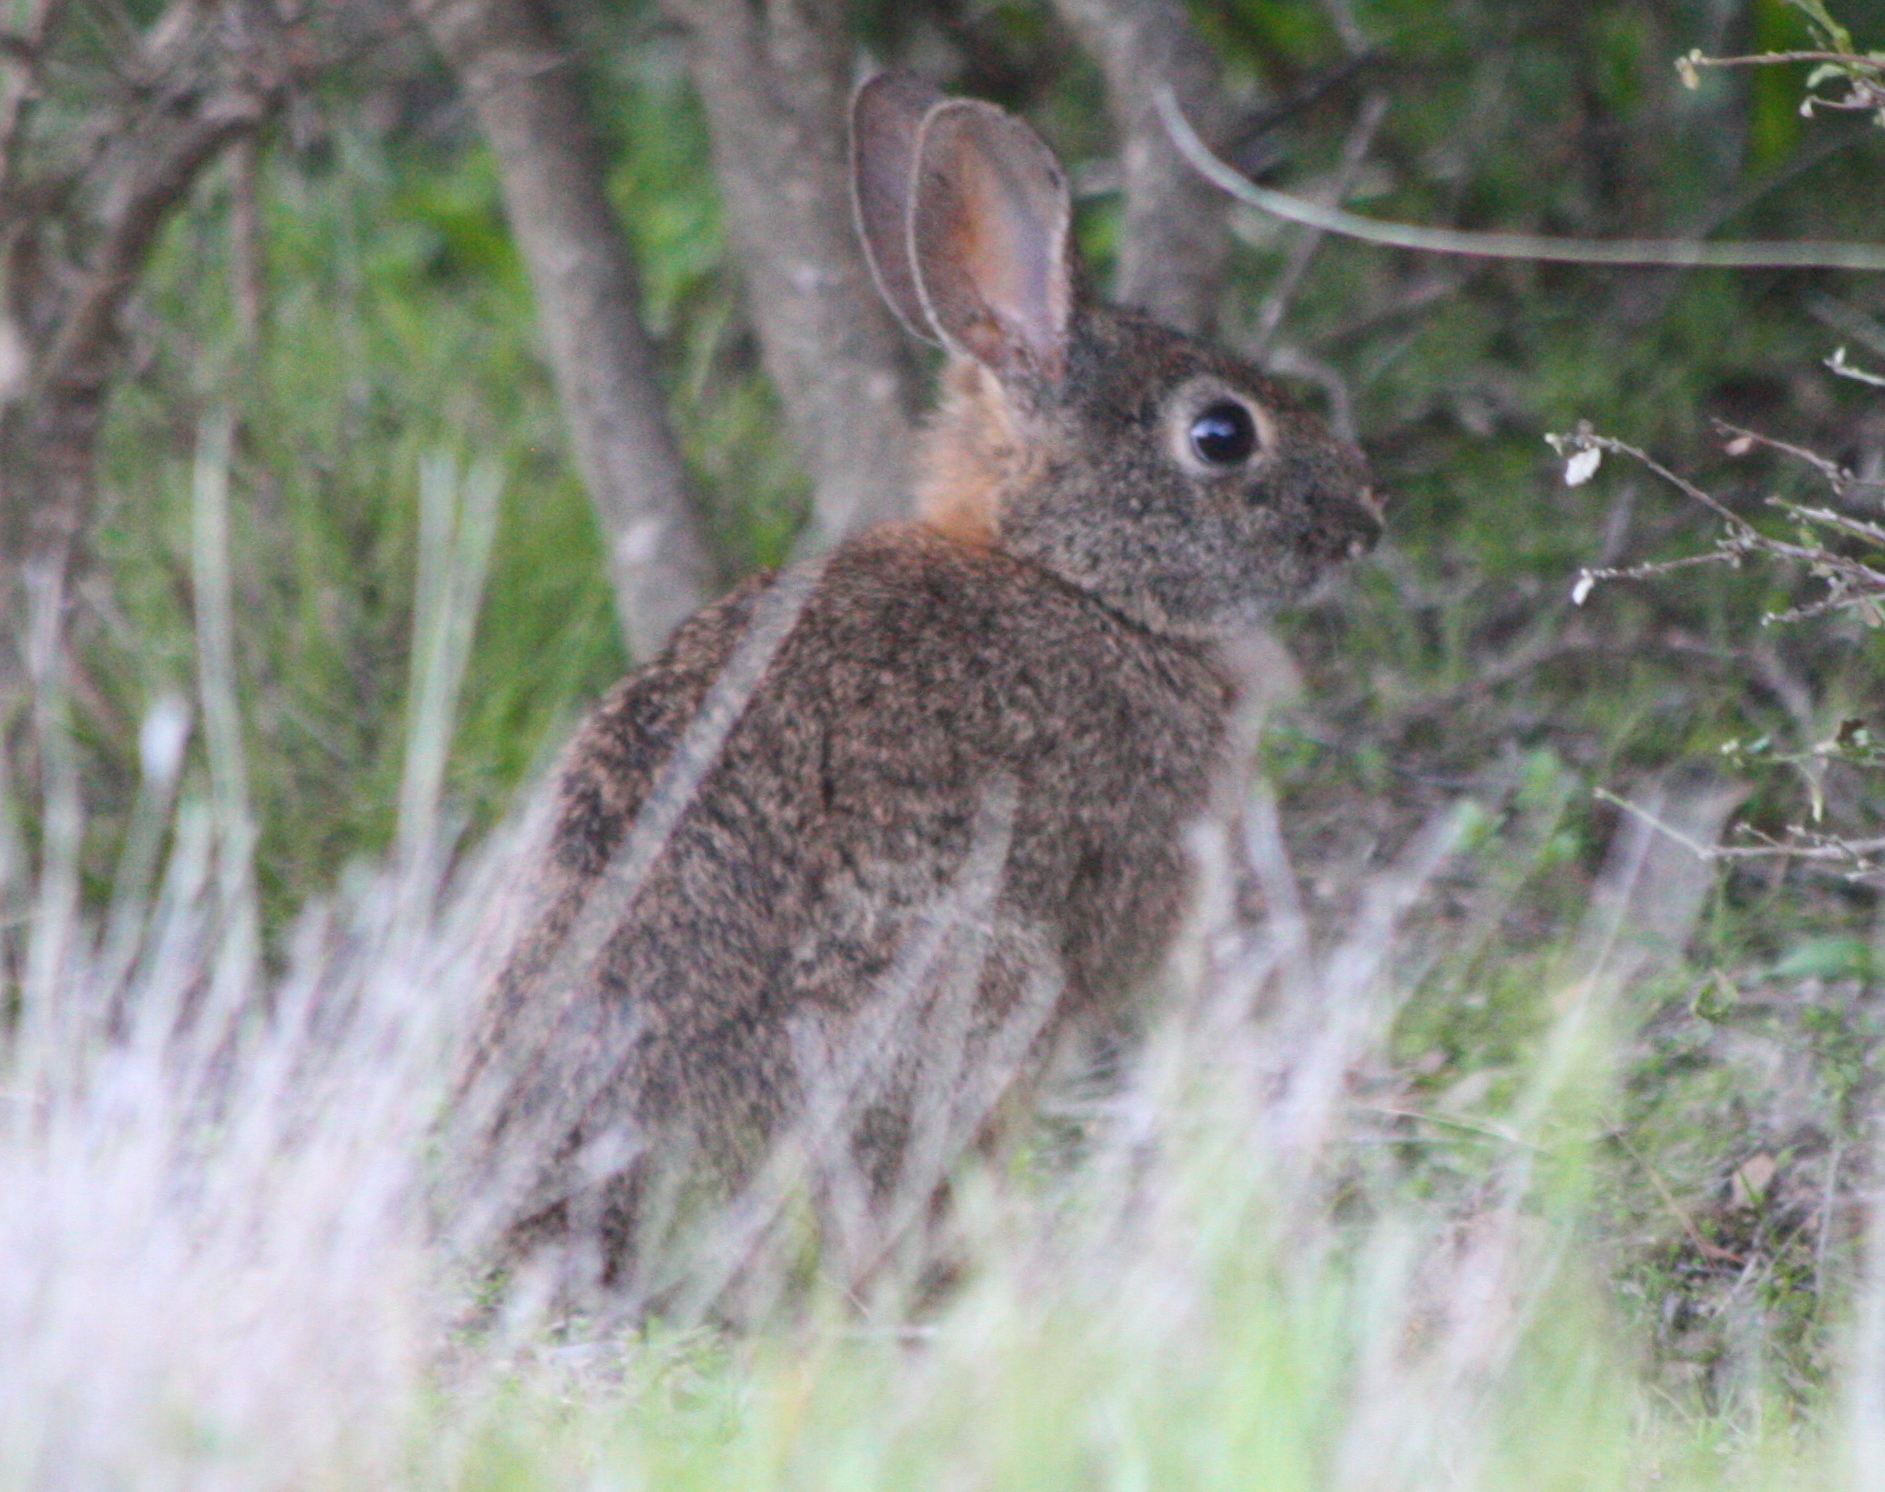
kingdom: Animalia
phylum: Chordata
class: Mammalia
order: Lagomorpha
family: Leporidae
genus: Sylvilagus
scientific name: Sylvilagus bachmani
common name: Brush rabbit
